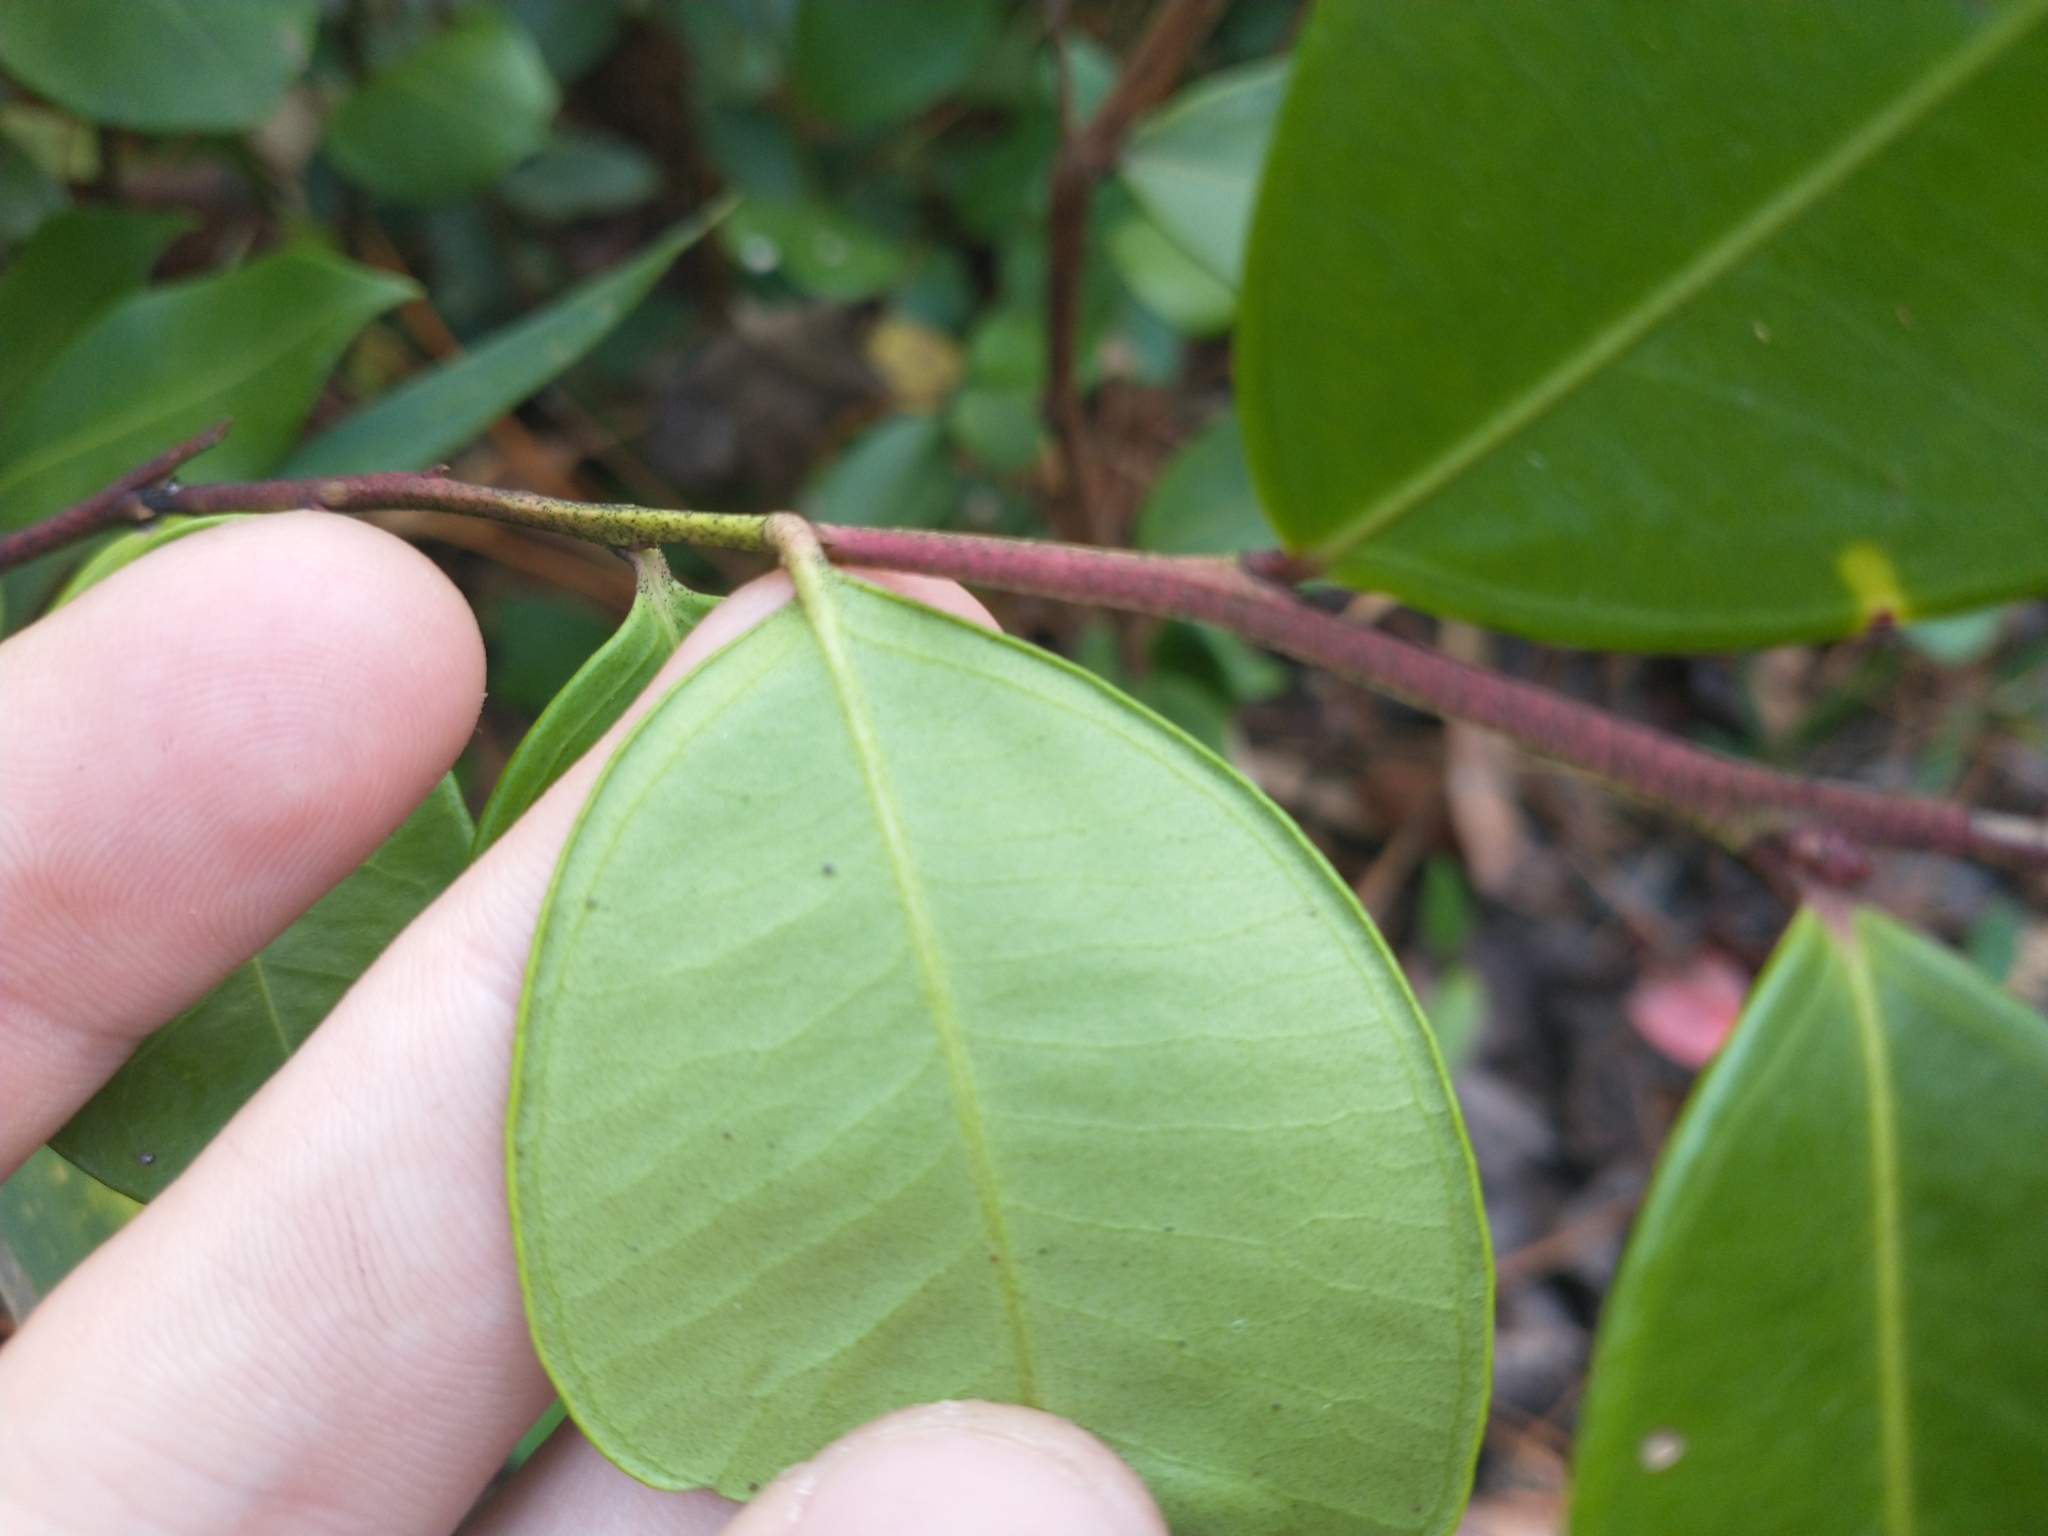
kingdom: Plantae
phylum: Tracheophyta
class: Magnoliopsida
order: Ericales
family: Ericaceae
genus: Lyonia
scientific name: Lyonia lucida
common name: Fetterbush
